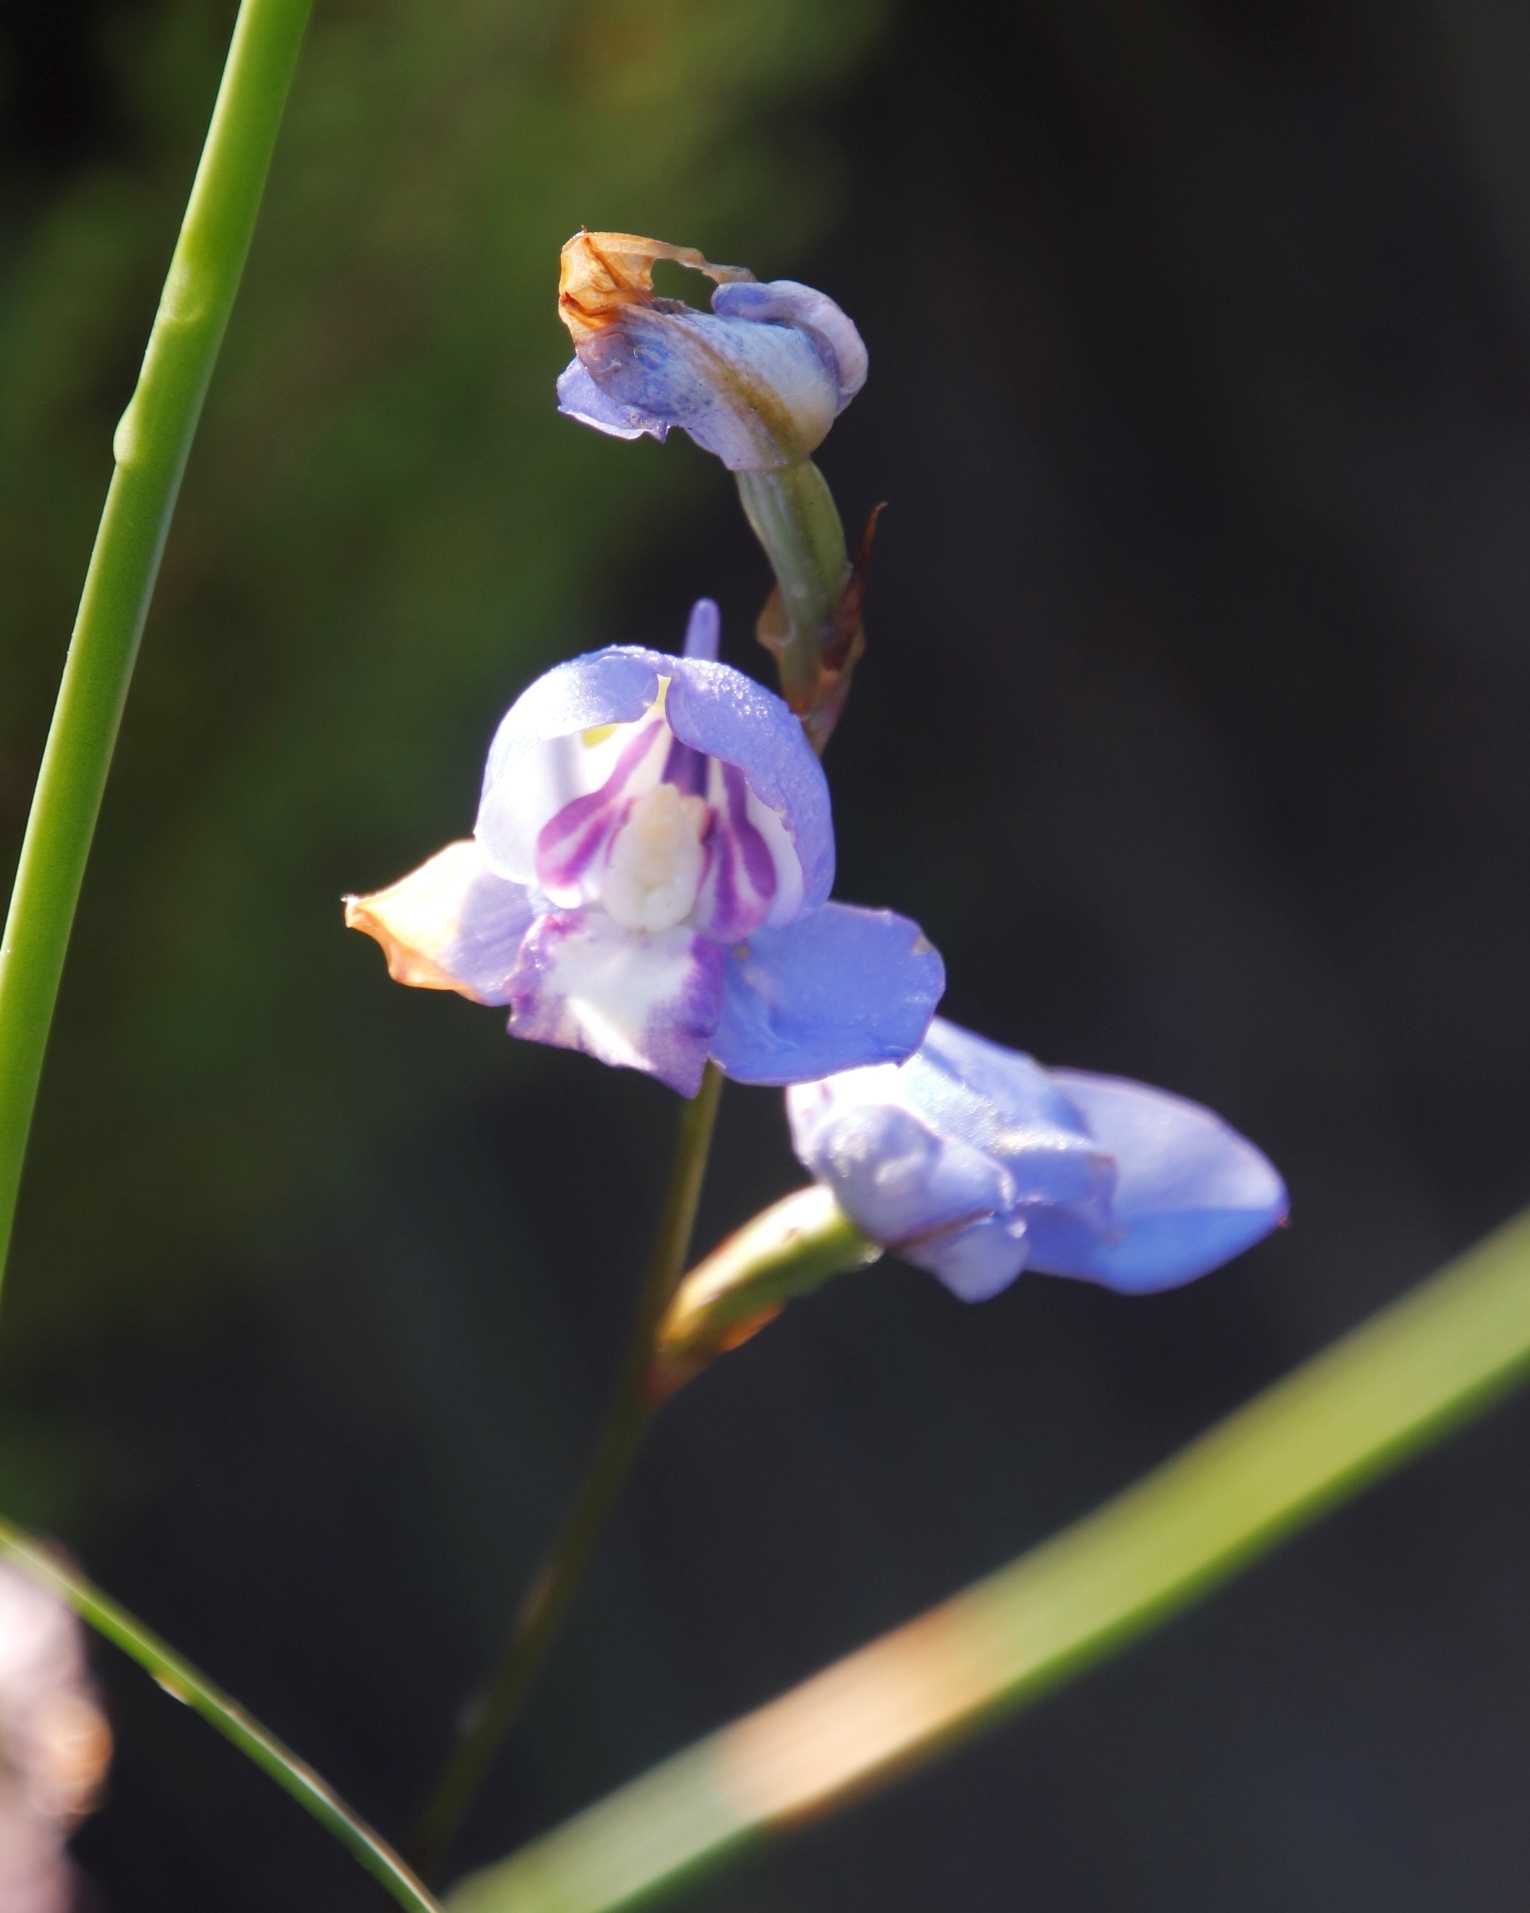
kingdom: Plantae
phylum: Tracheophyta
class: Liliopsida
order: Asparagales
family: Orchidaceae
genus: Disa
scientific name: Disa graminifolia
